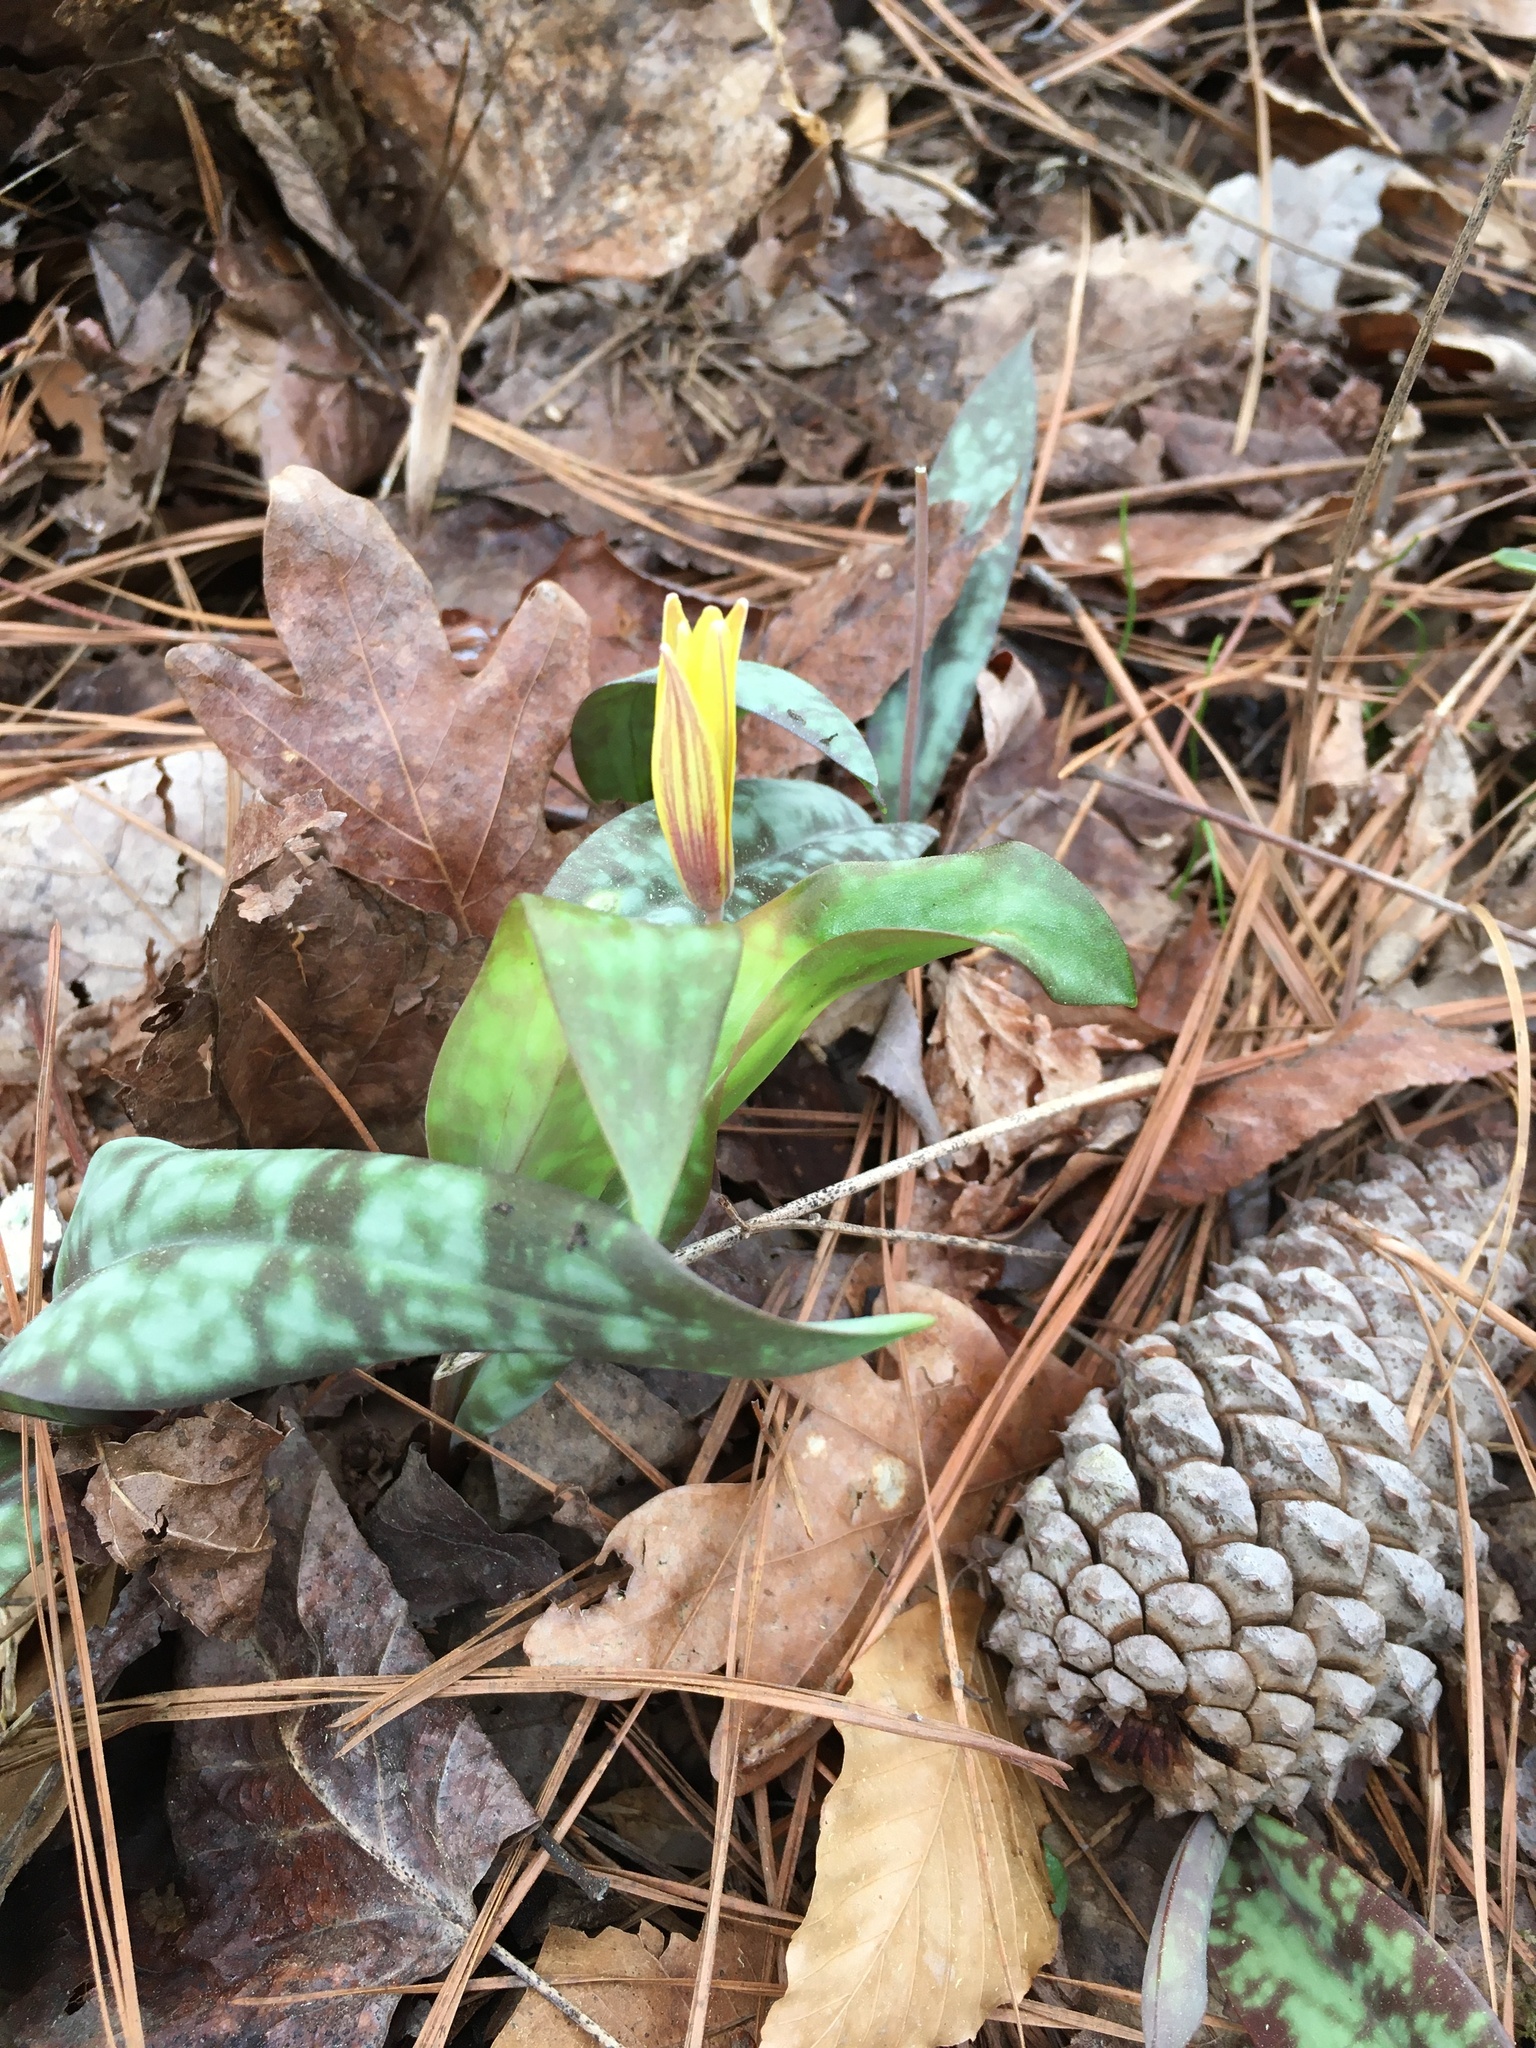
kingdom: Plantae
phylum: Tracheophyta
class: Liliopsida
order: Liliales
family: Liliaceae
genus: Erythronium
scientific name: Erythronium umbilicatum
